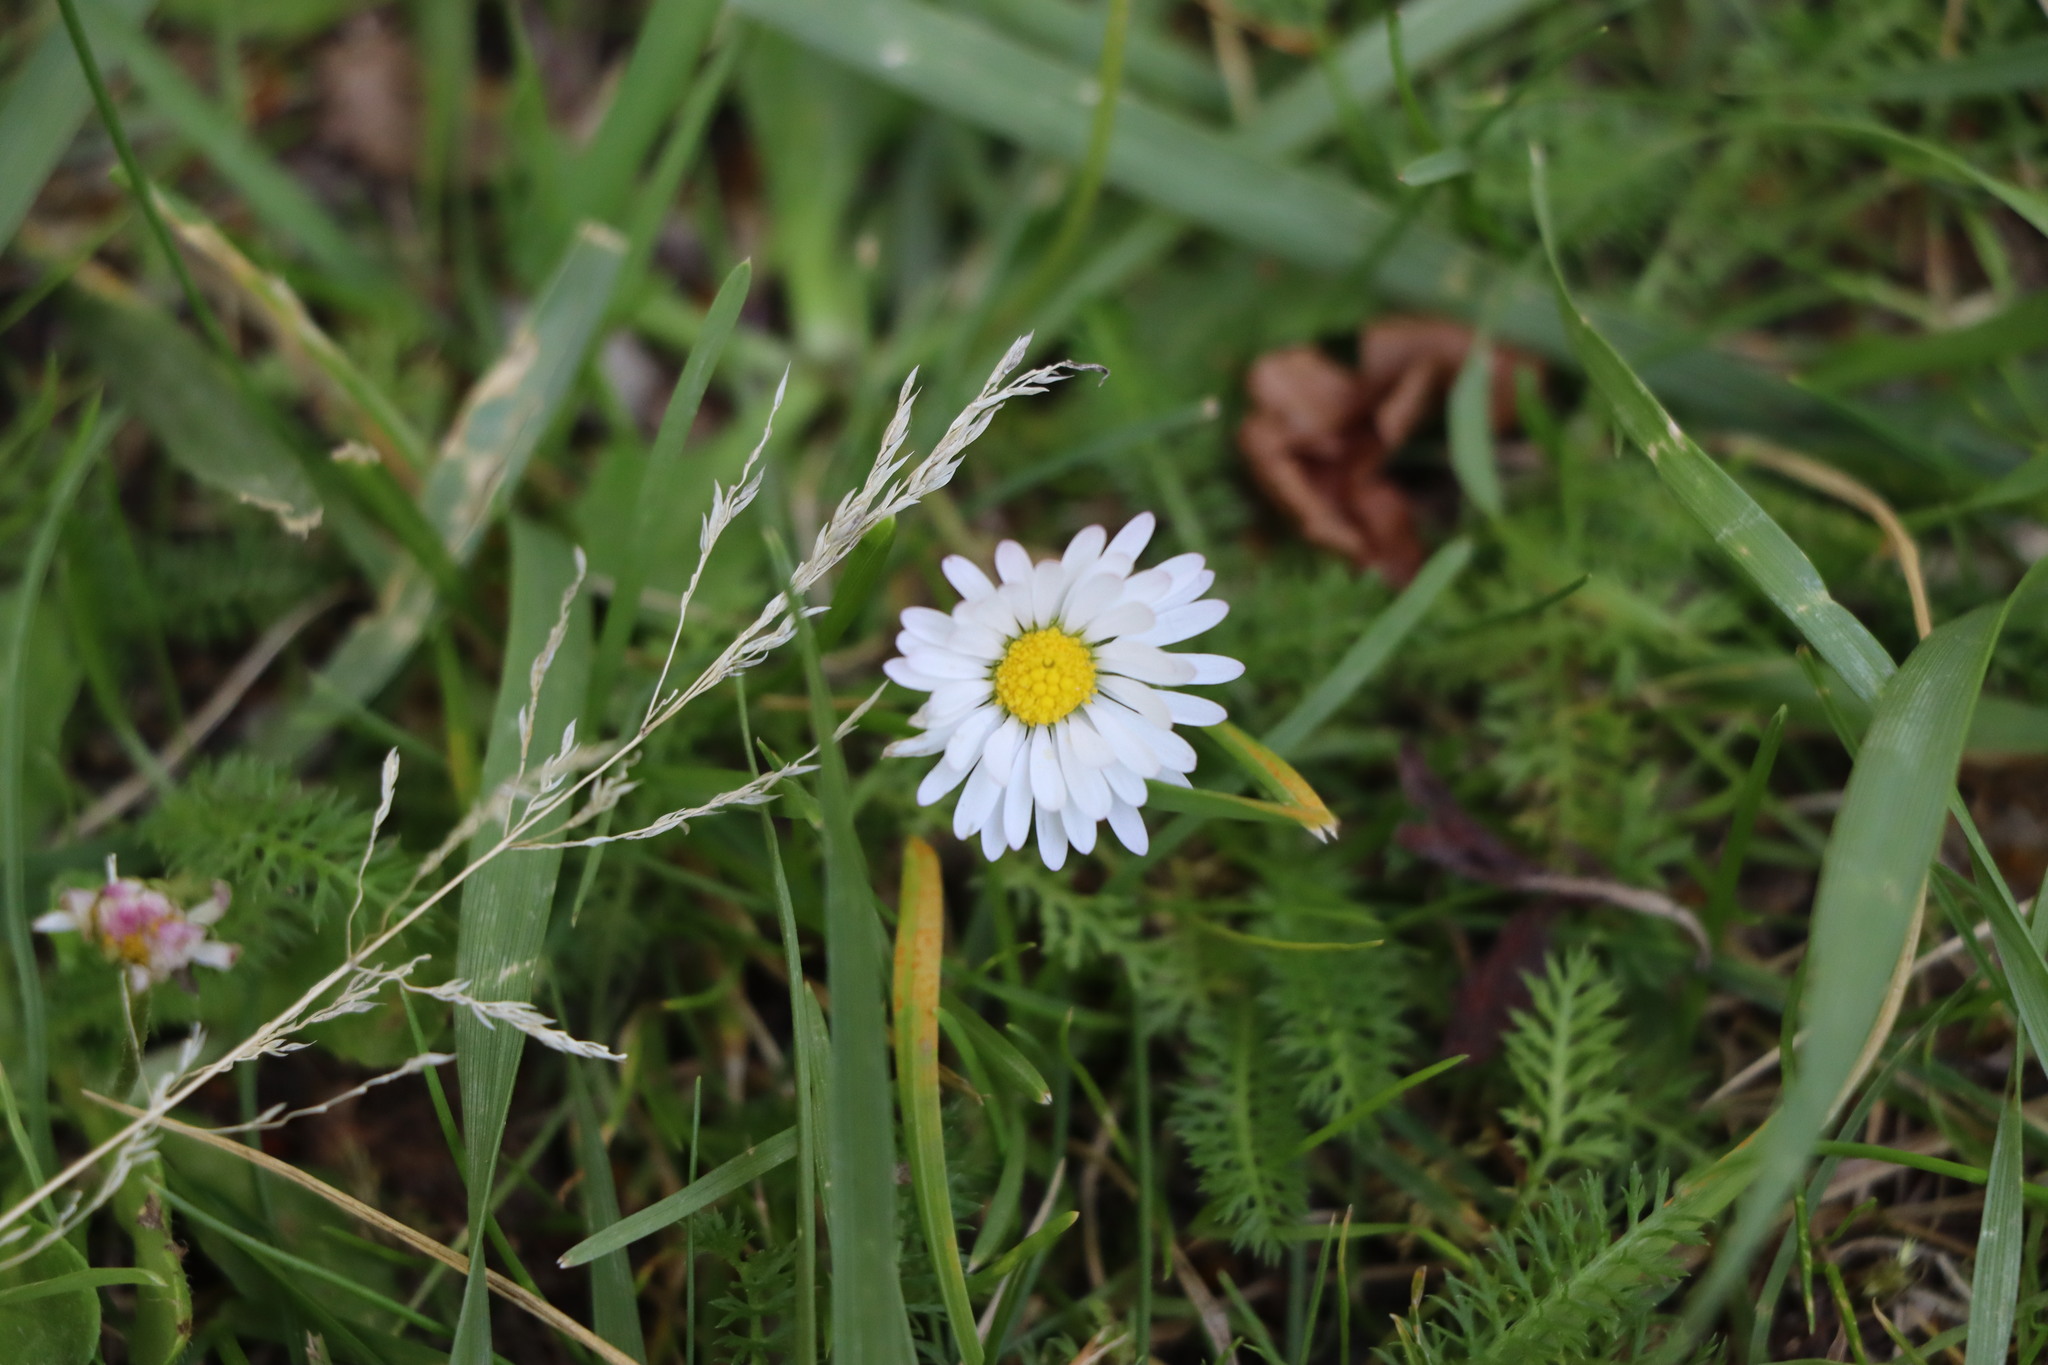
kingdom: Plantae
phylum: Tracheophyta
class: Magnoliopsida
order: Asterales
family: Asteraceae
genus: Bellis
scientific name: Bellis perennis
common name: Lawndaisy
